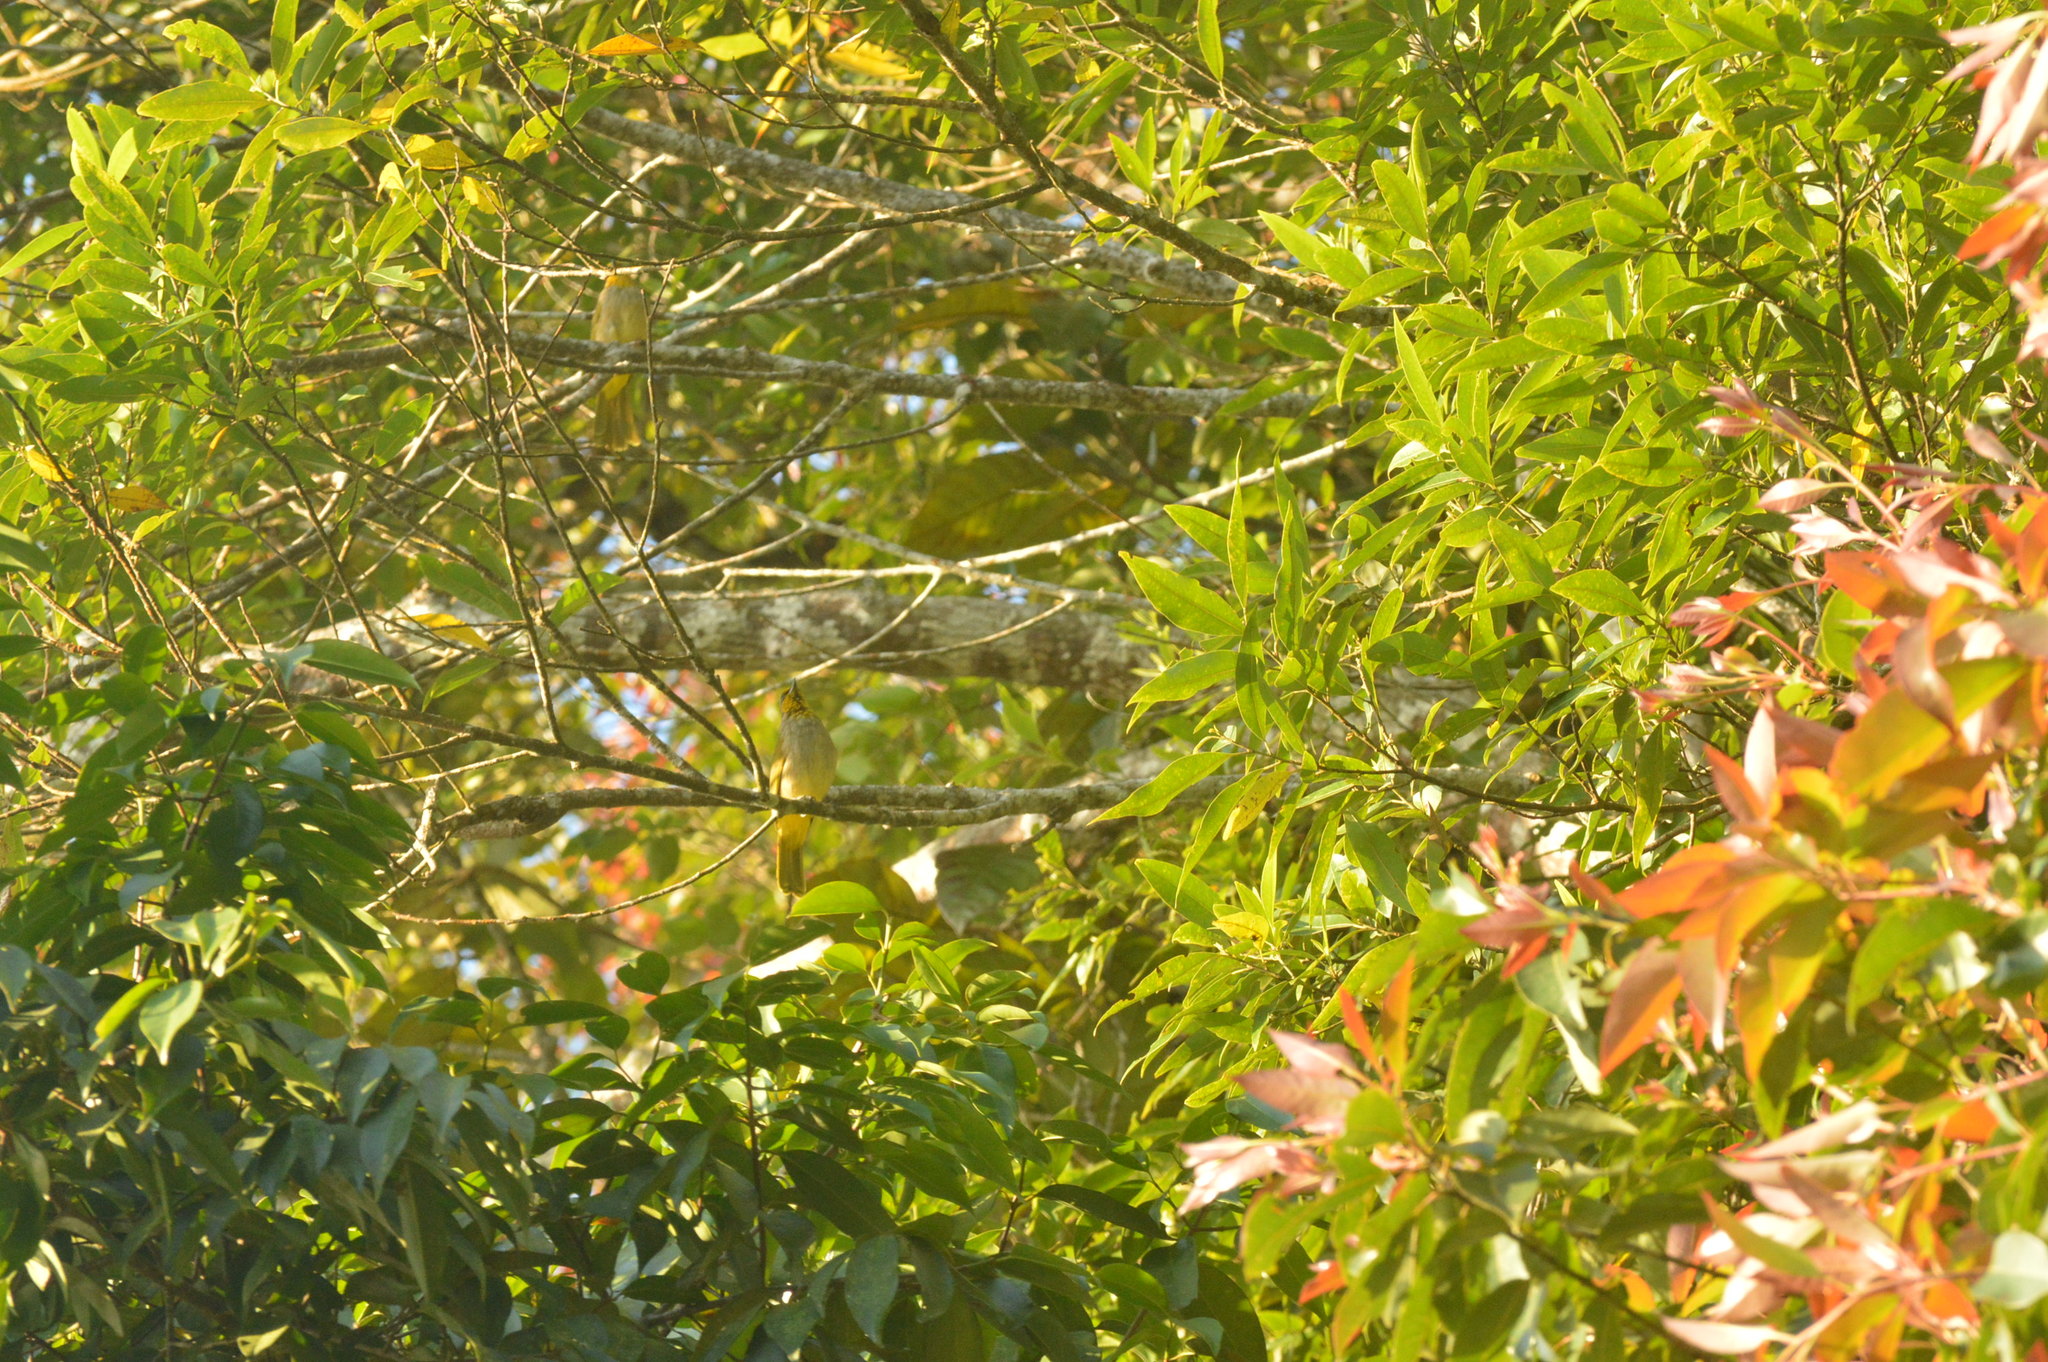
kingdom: Animalia
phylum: Chordata
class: Aves
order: Passeriformes
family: Pycnonotidae
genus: Pycnonotus
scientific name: Pycnonotus finlaysoni
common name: Stripe-throated bulbul
